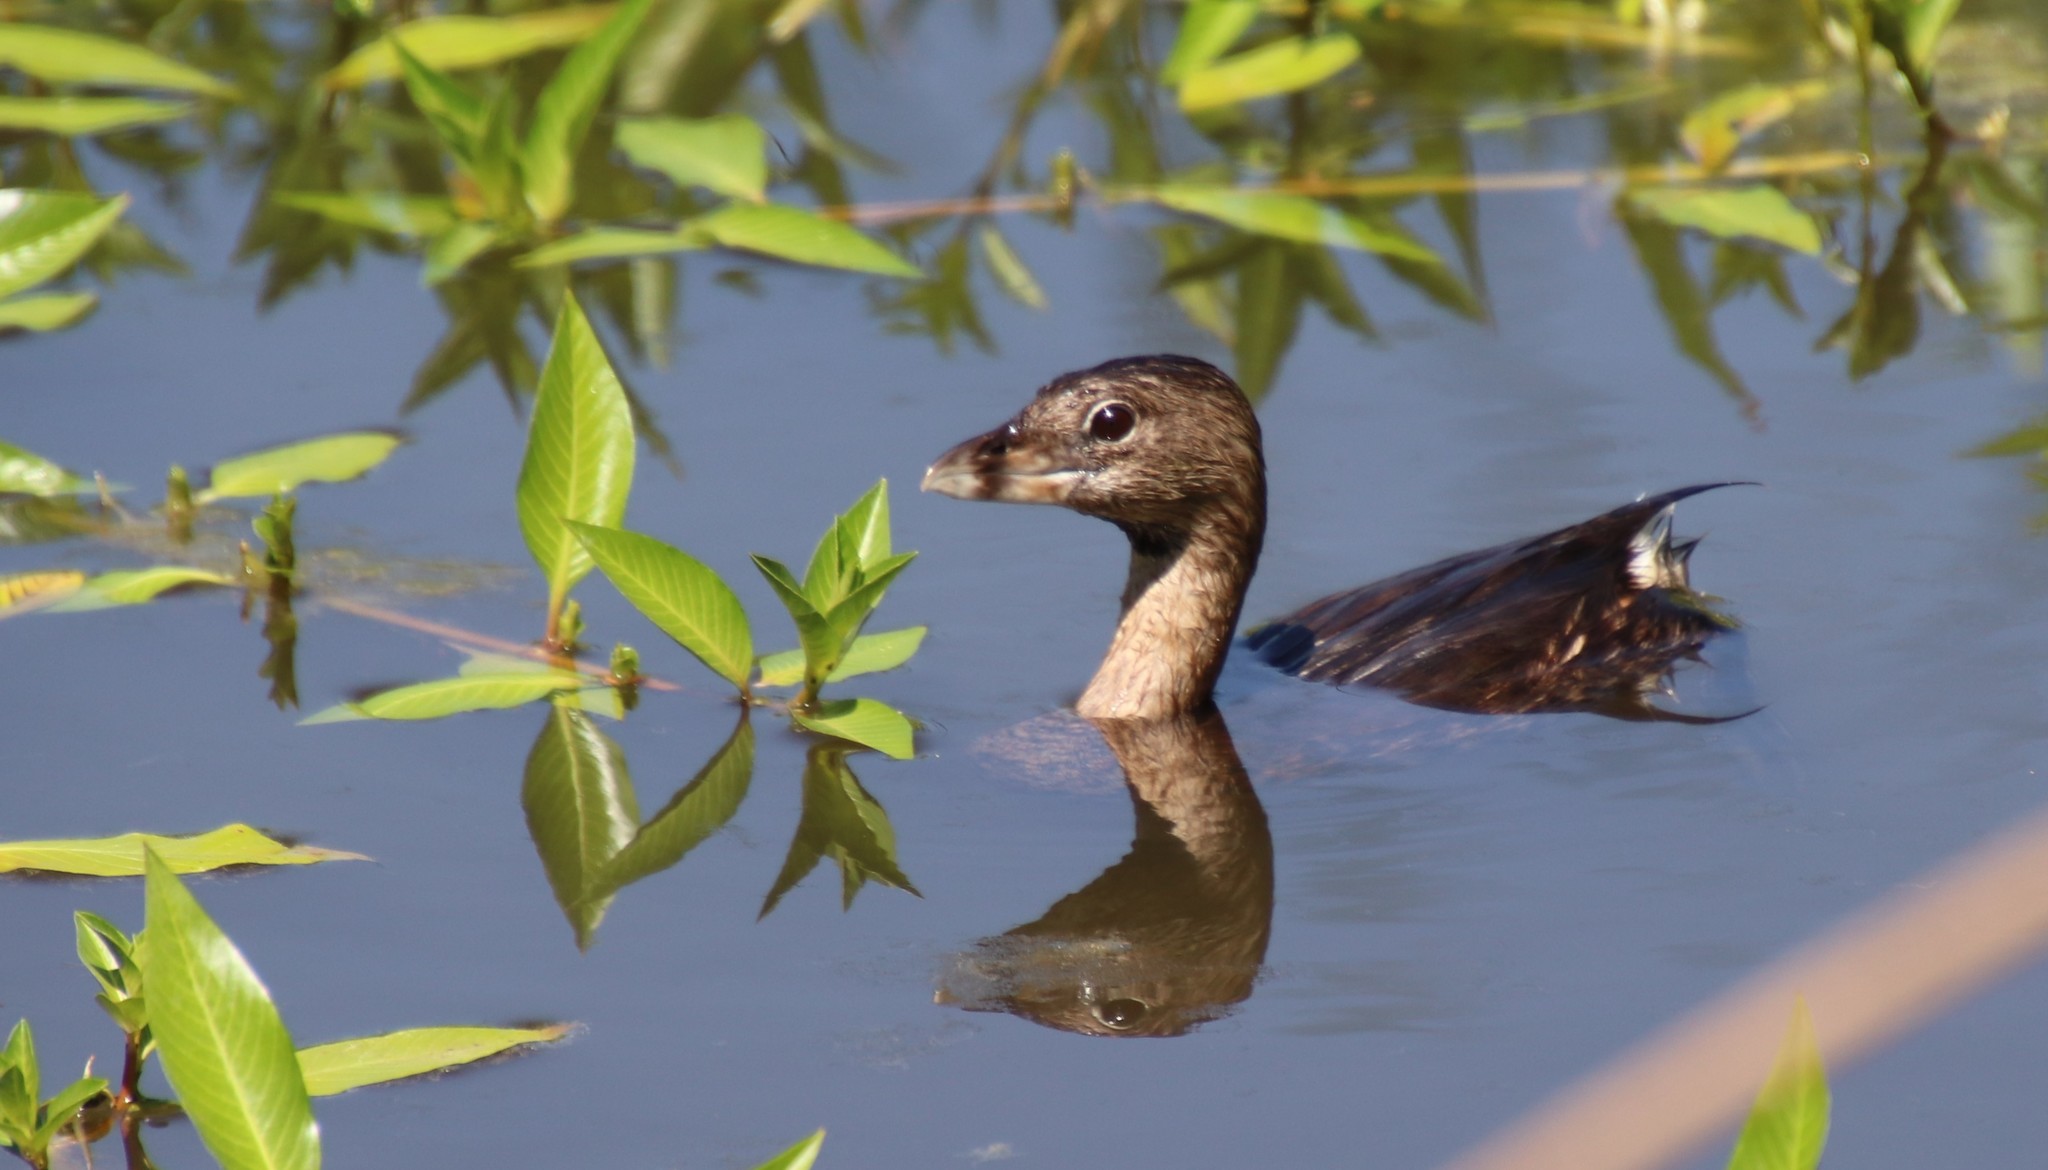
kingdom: Animalia
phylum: Chordata
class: Aves
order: Podicipediformes
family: Podicipedidae
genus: Podilymbus
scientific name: Podilymbus podiceps
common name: Pied-billed grebe
